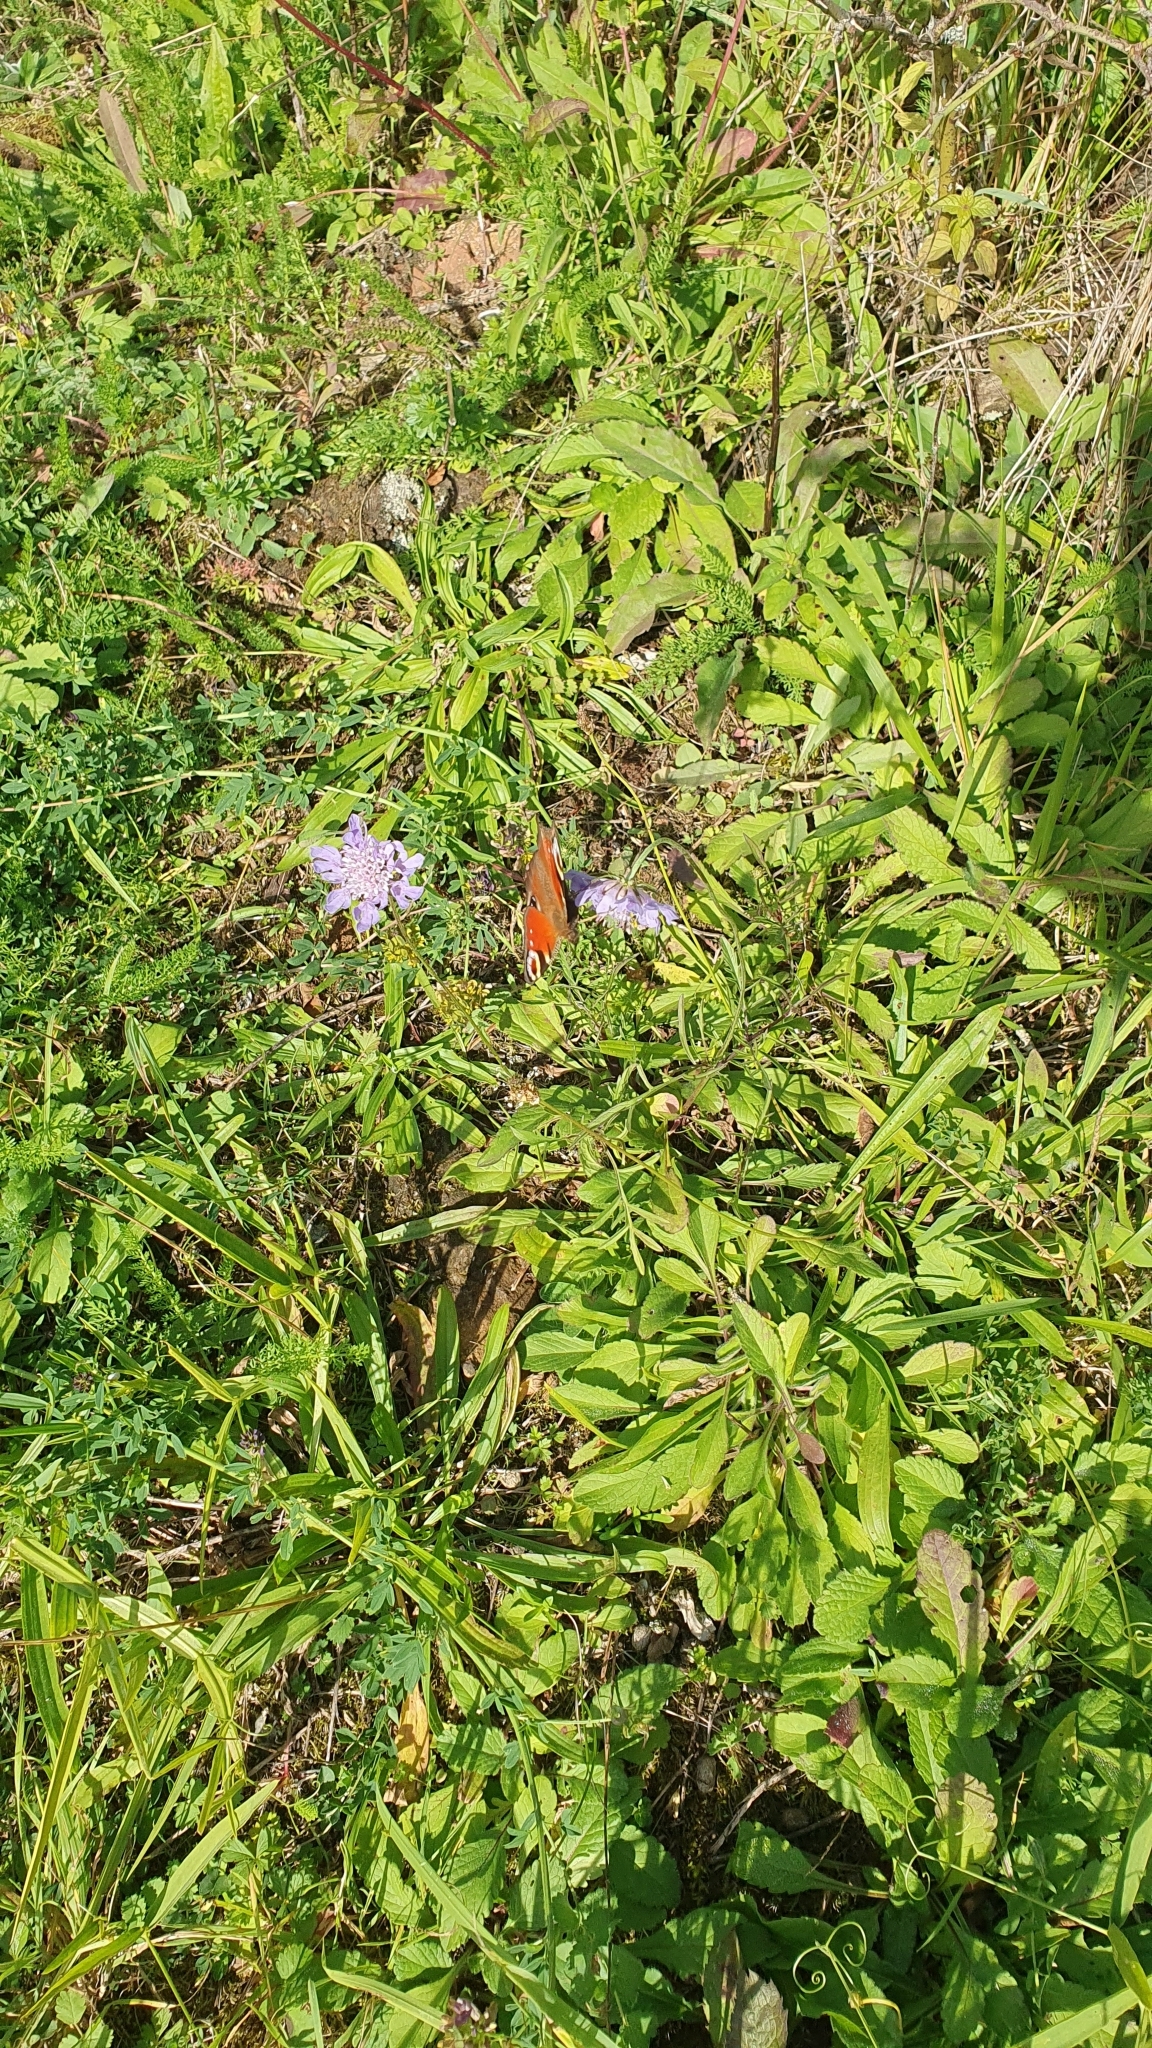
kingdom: Animalia
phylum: Arthropoda
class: Insecta
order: Lepidoptera
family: Nymphalidae
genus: Aglais
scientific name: Aglais io
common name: Peacock
